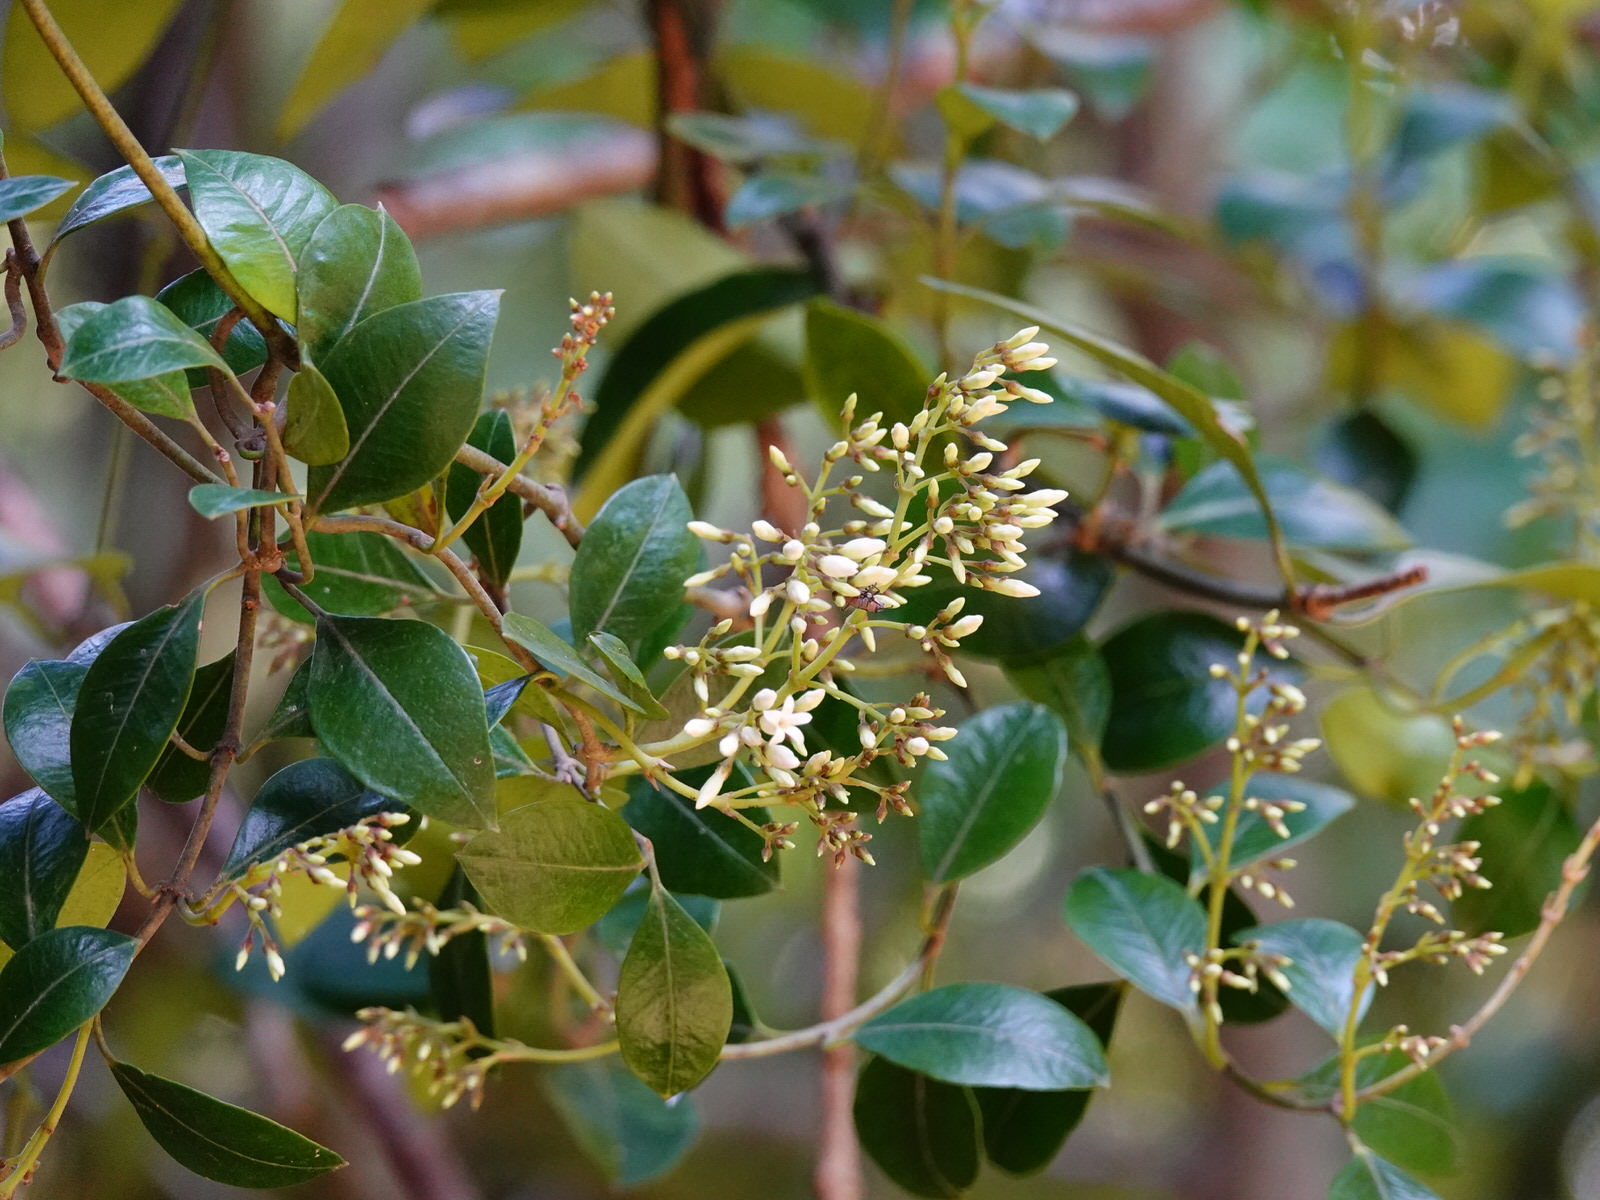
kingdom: Plantae
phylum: Tracheophyta
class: Magnoliopsida
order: Gentianales
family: Apocynaceae
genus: Parsonsia
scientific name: Parsonsia heterophylla
